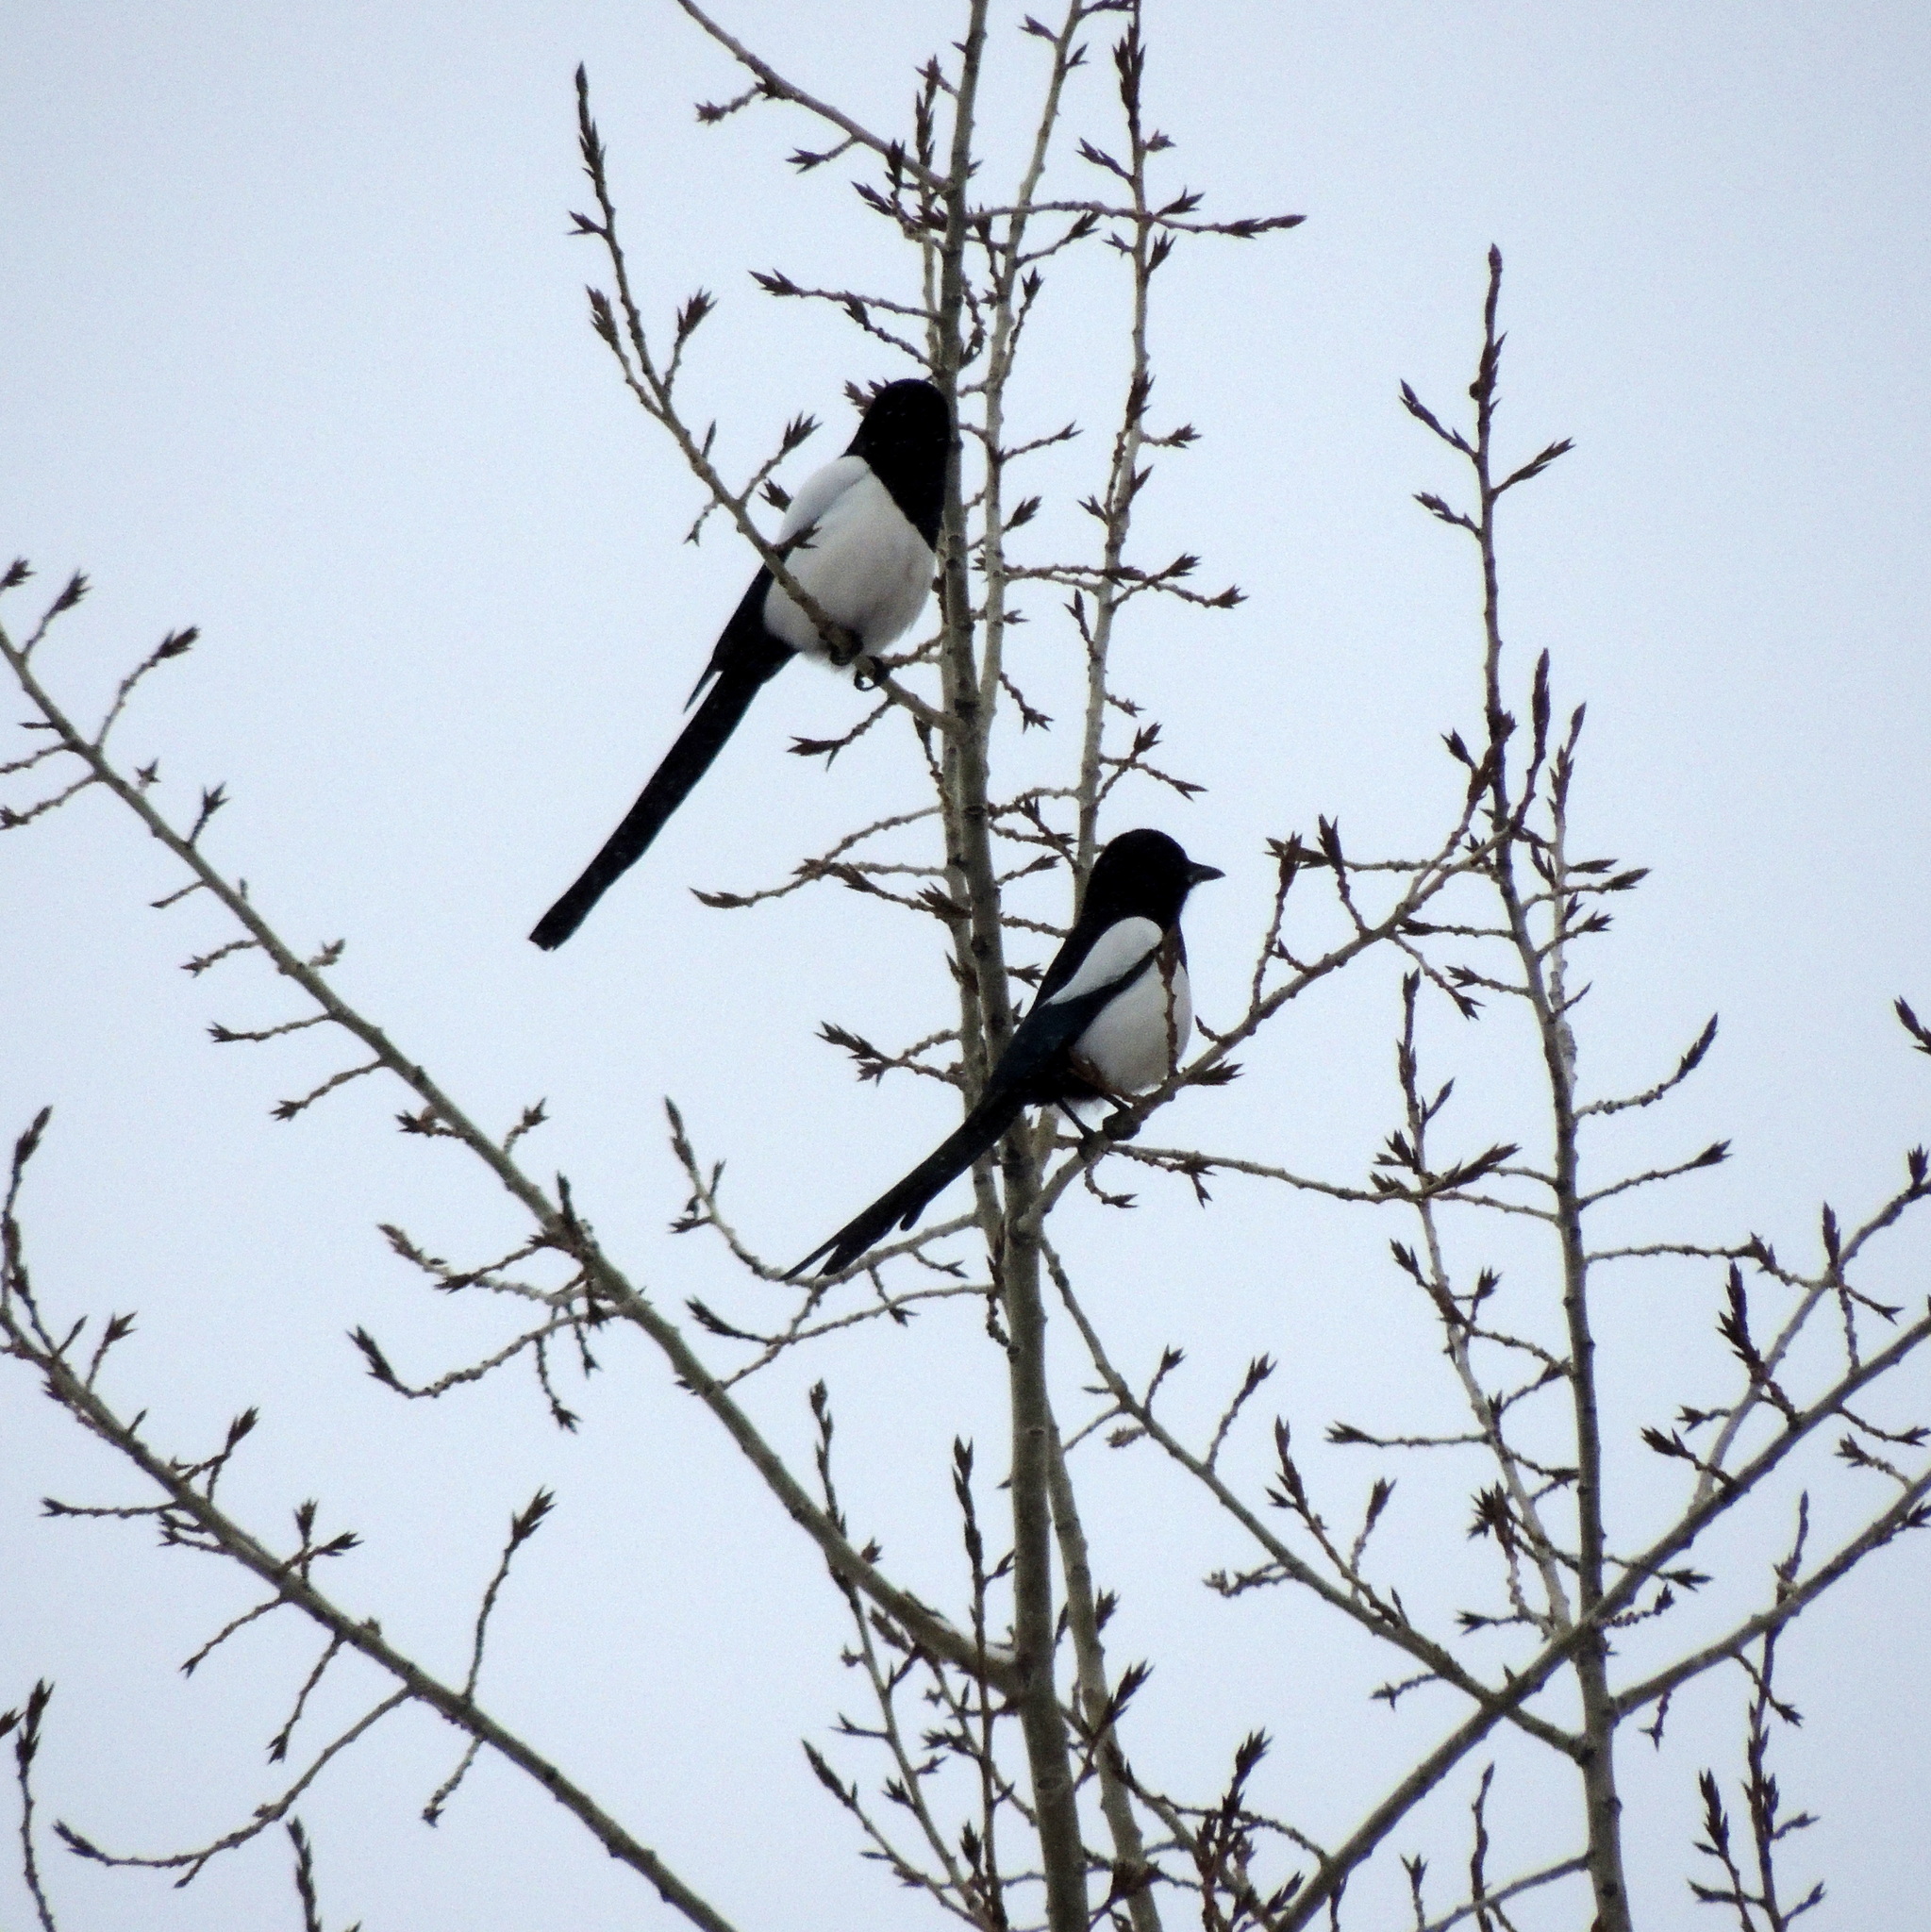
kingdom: Animalia
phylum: Chordata
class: Aves
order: Passeriformes
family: Corvidae
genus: Pica
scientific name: Pica pica
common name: Eurasian magpie
